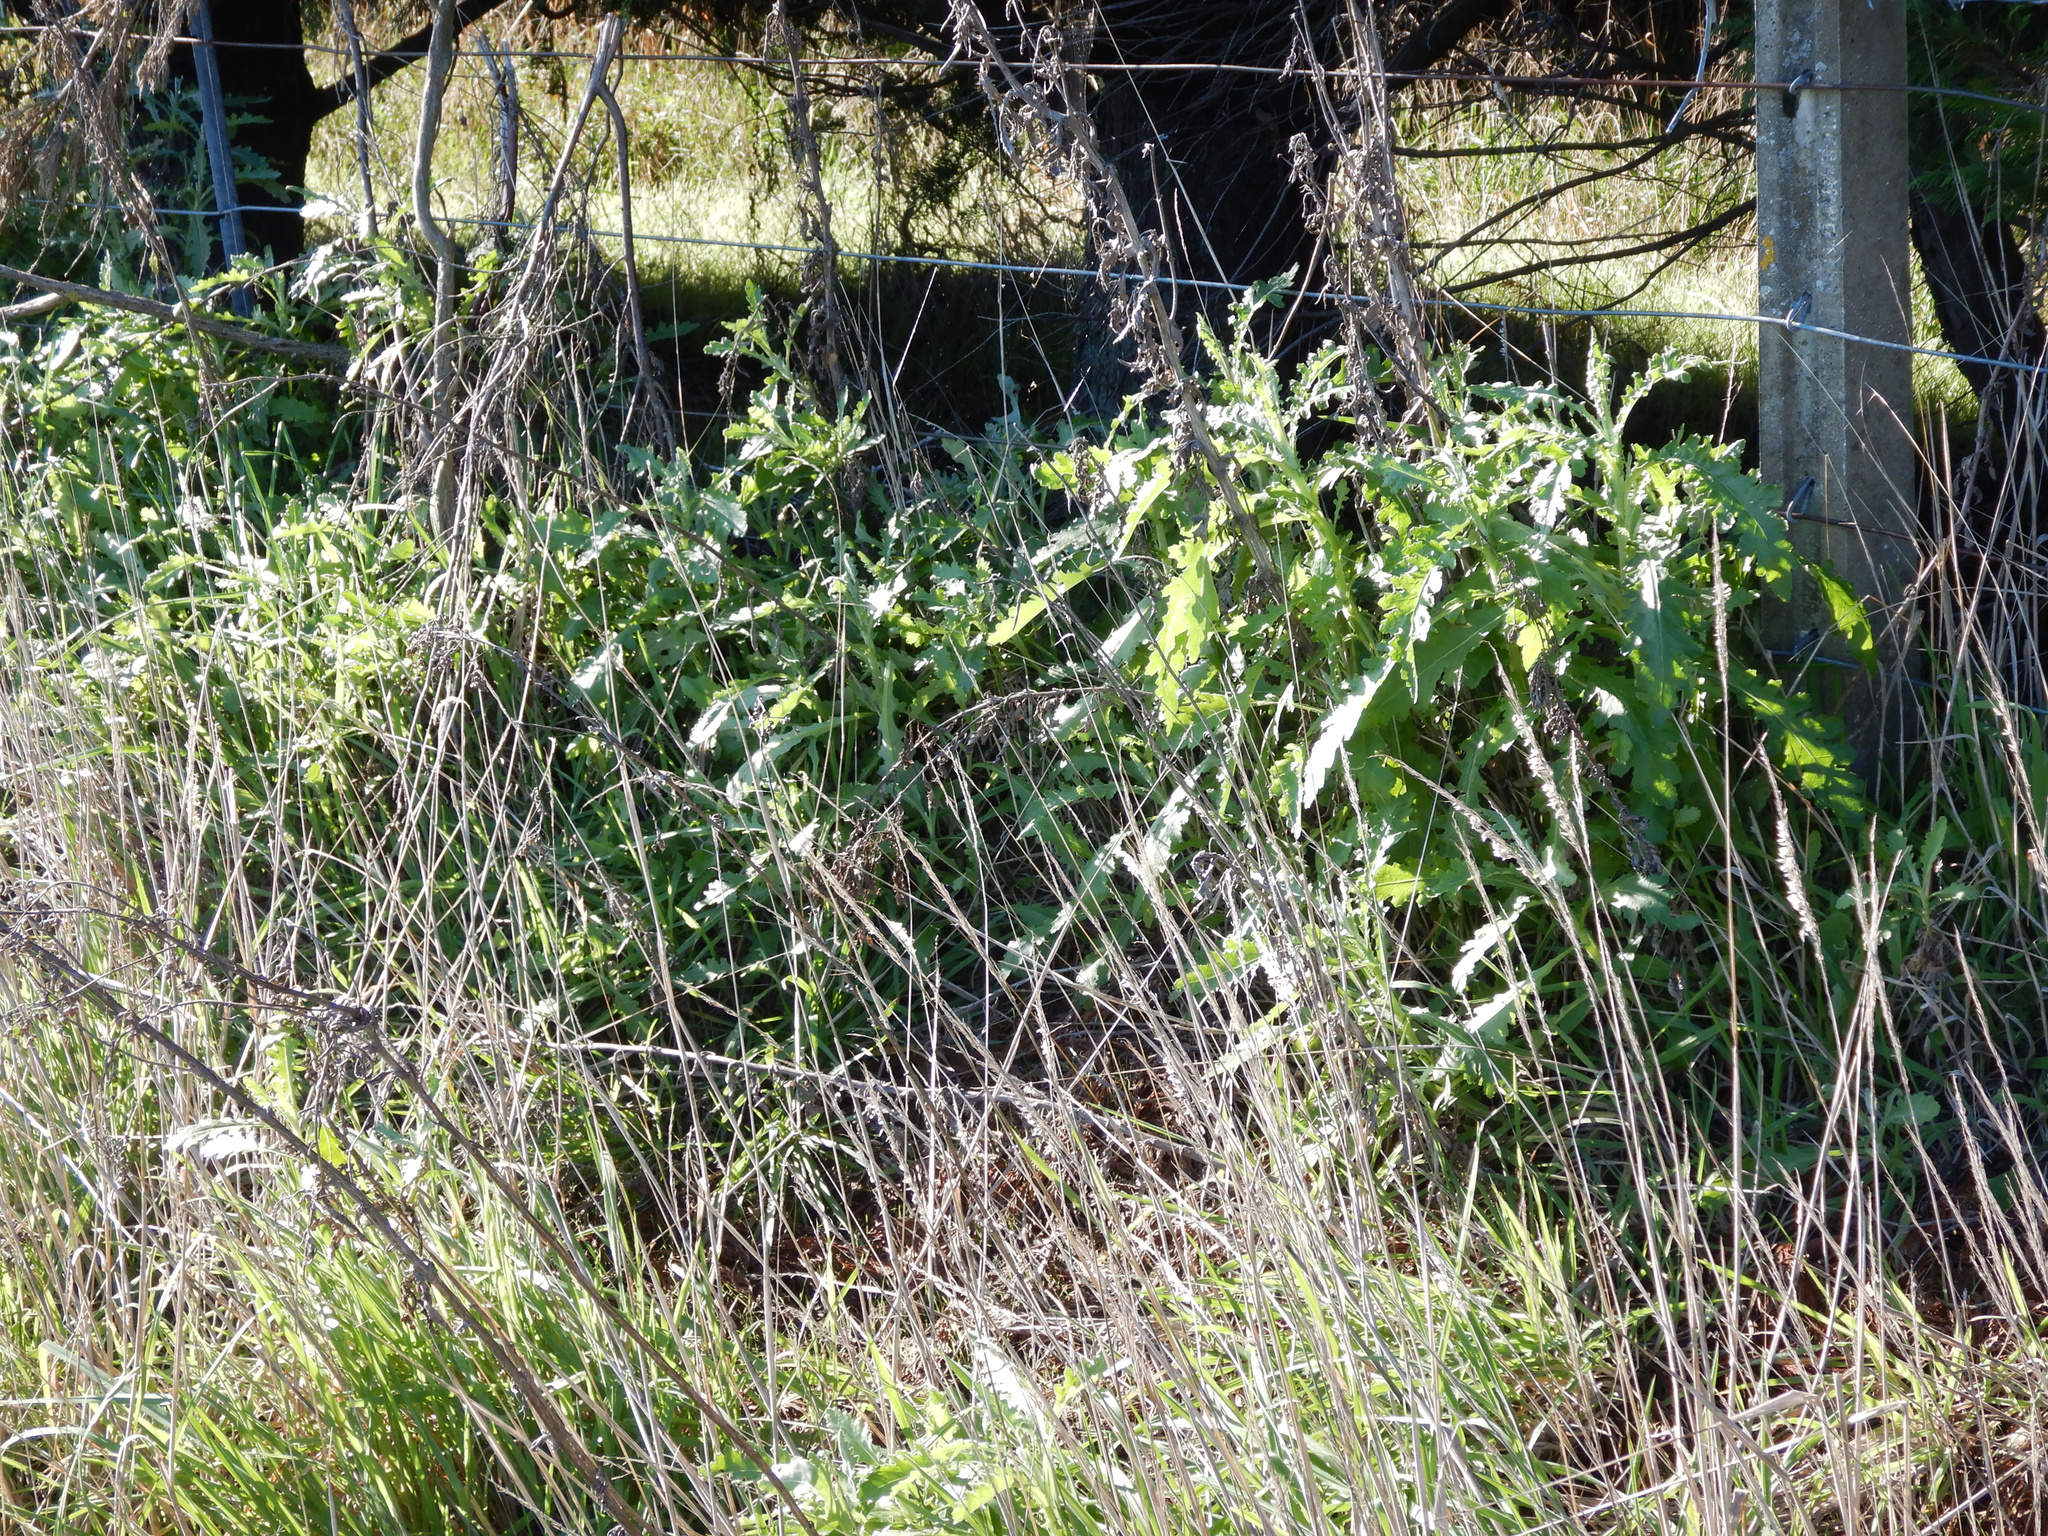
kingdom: Plantae
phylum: Tracheophyta
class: Magnoliopsida
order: Asterales
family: Asteraceae
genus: Senecio
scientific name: Senecio glomeratus
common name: Cutleaf burnweed
